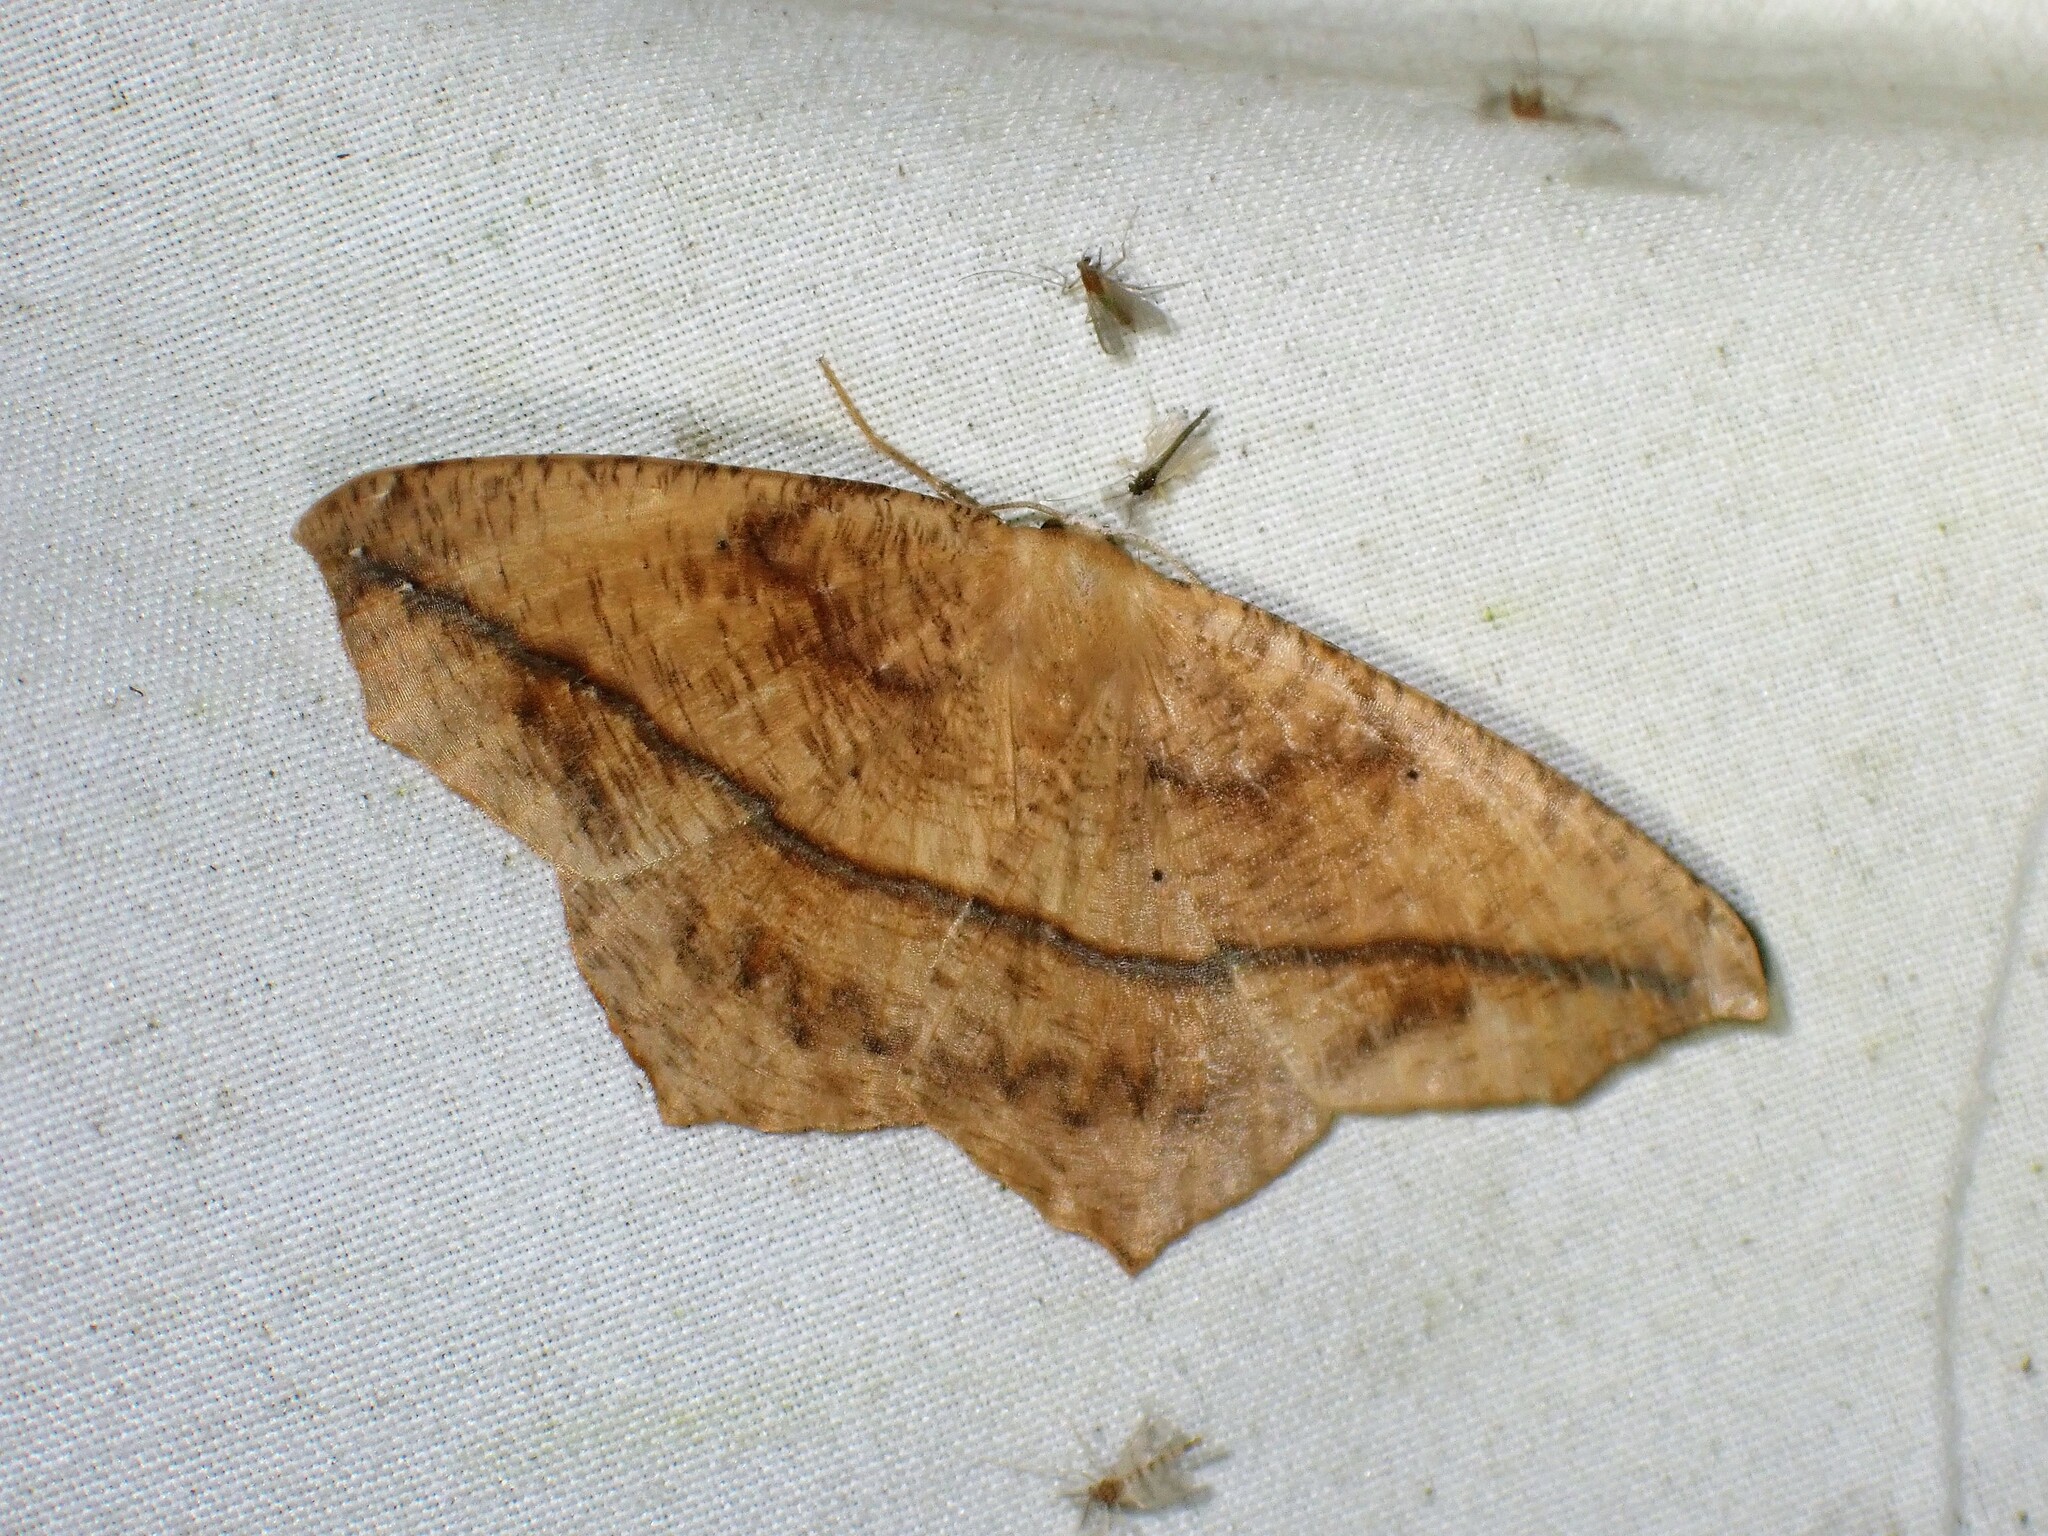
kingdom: Animalia
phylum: Arthropoda
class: Insecta
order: Lepidoptera
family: Geometridae
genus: Prochoerodes
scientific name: Prochoerodes lineola
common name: Large maple spanworm
